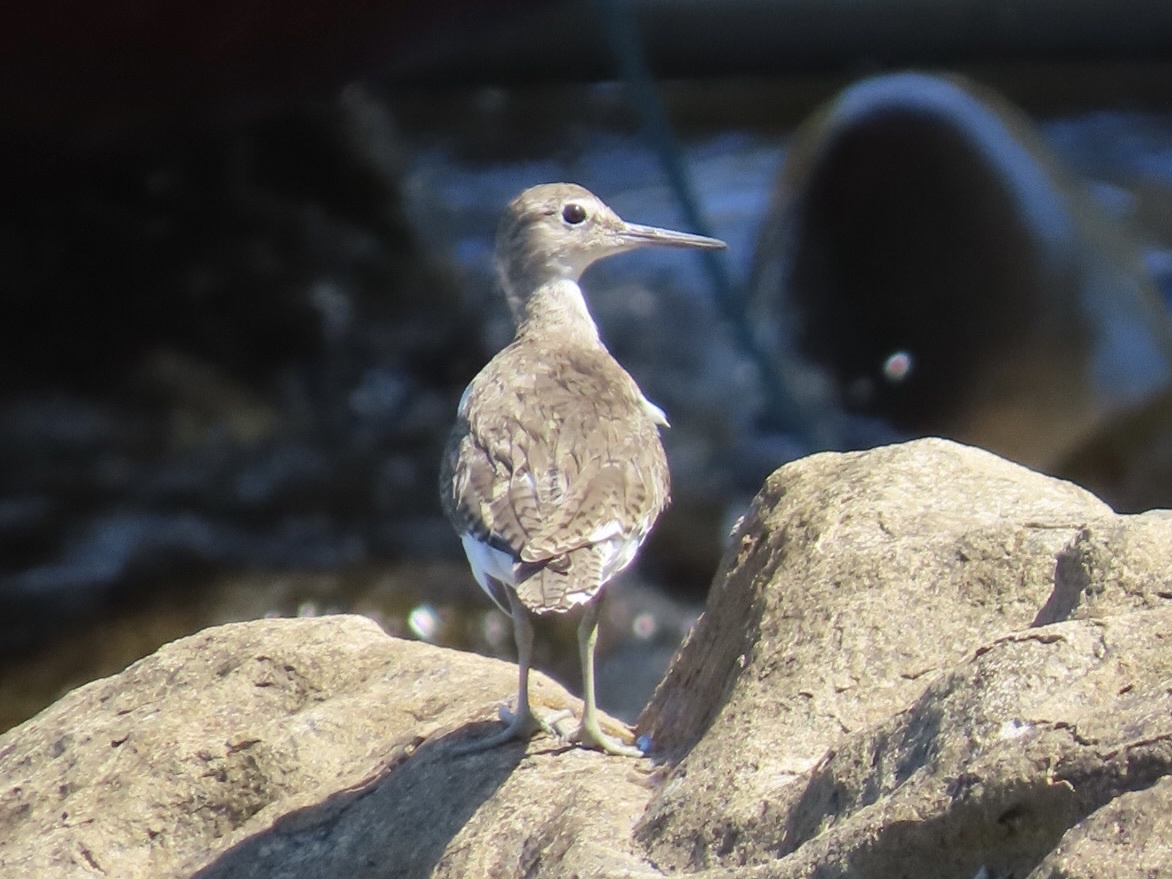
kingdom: Animalia
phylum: Chordata
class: Aves
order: Charadriiformes
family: Scolopacidae
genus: Actitis
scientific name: Actitis hypoleucos
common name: Common sandpiper
